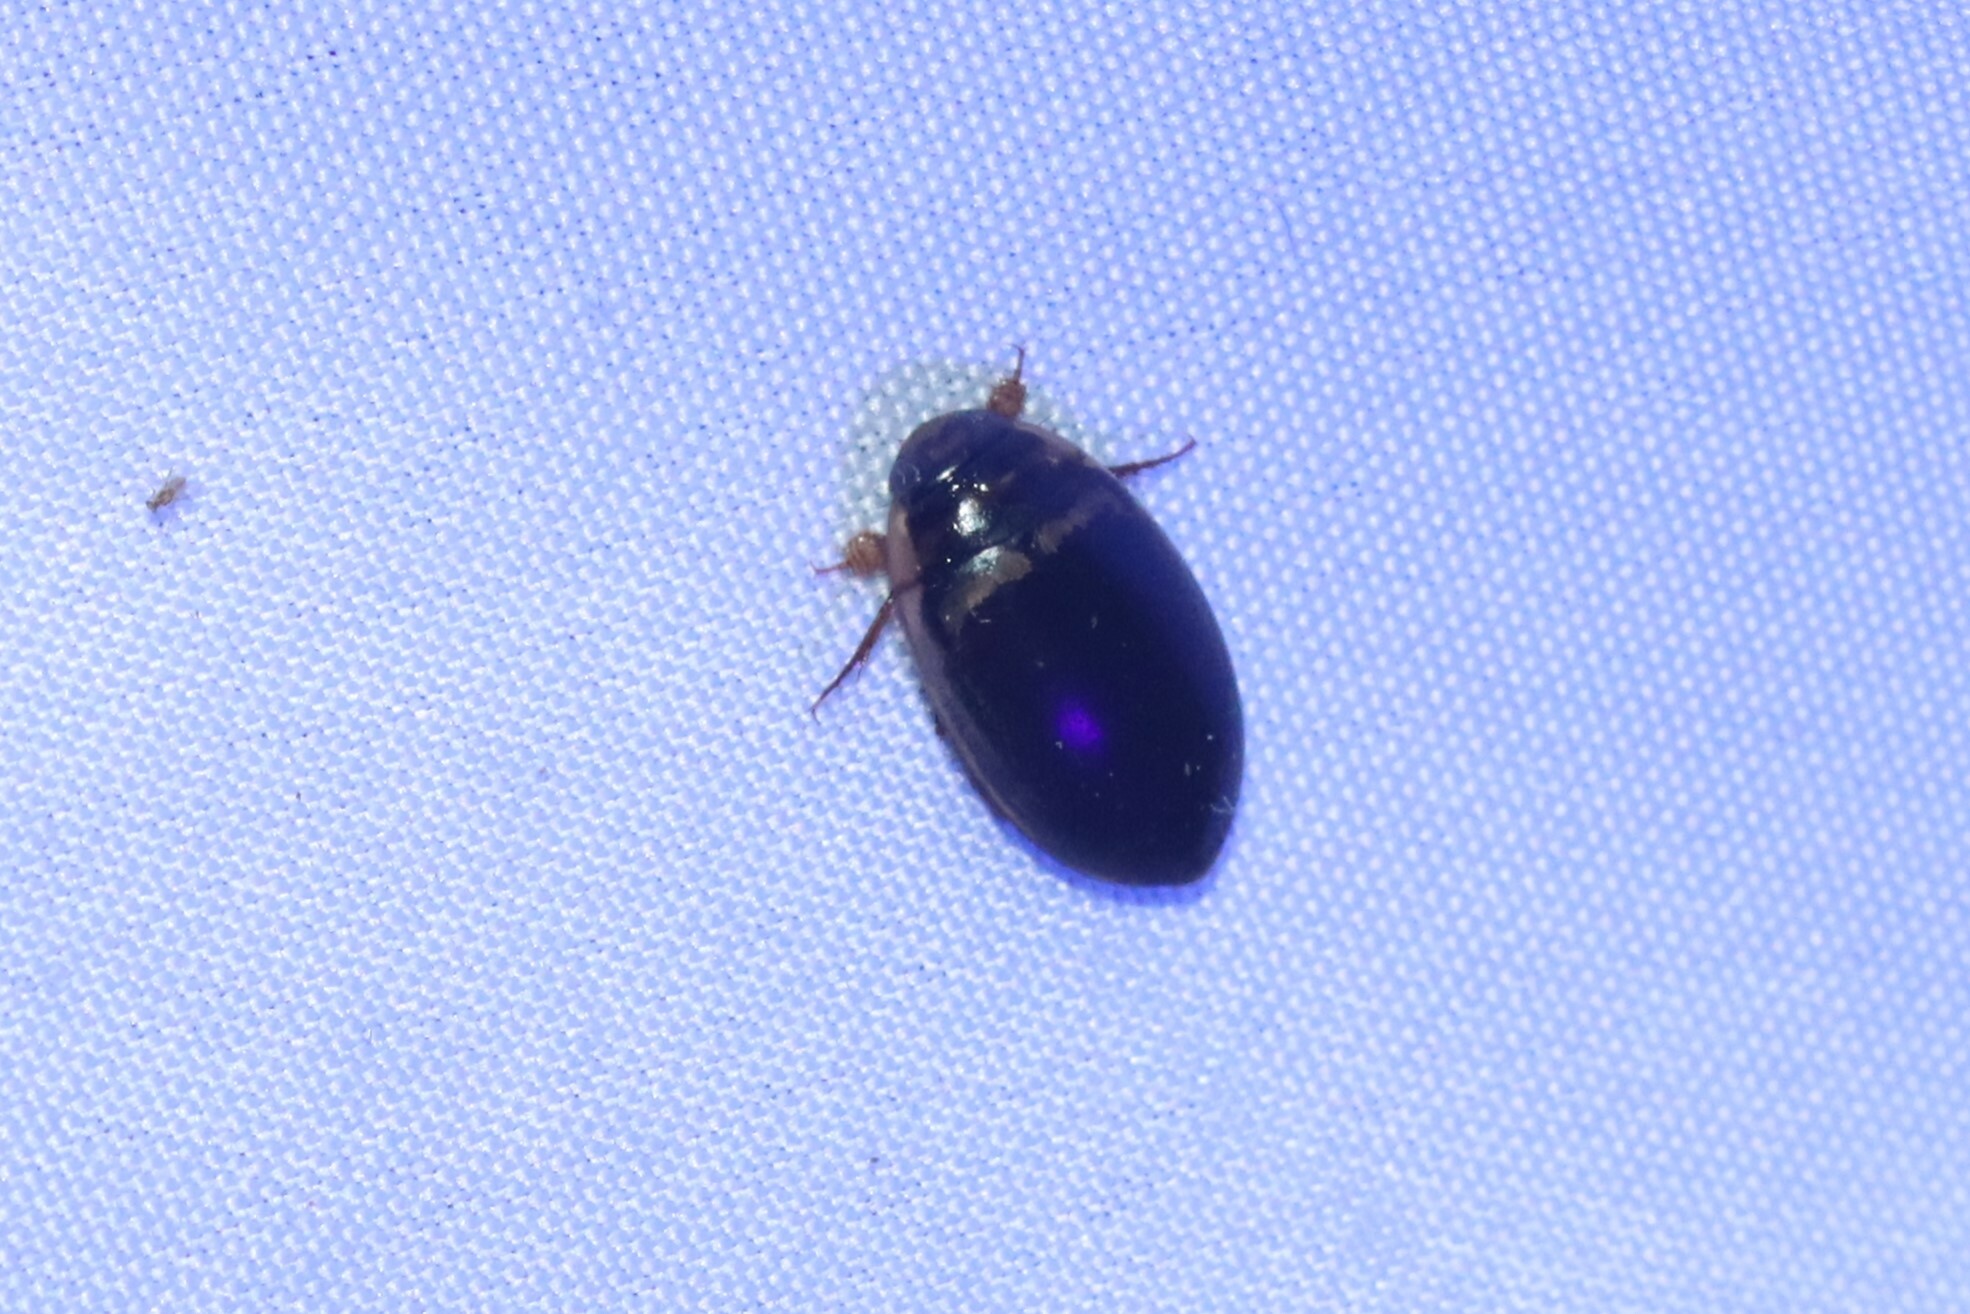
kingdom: Animalia
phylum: Arthropoda
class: Insecta
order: Coleoptera
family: Dytiscidae
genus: Thermonectus
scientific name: Thermonectus basillaris
